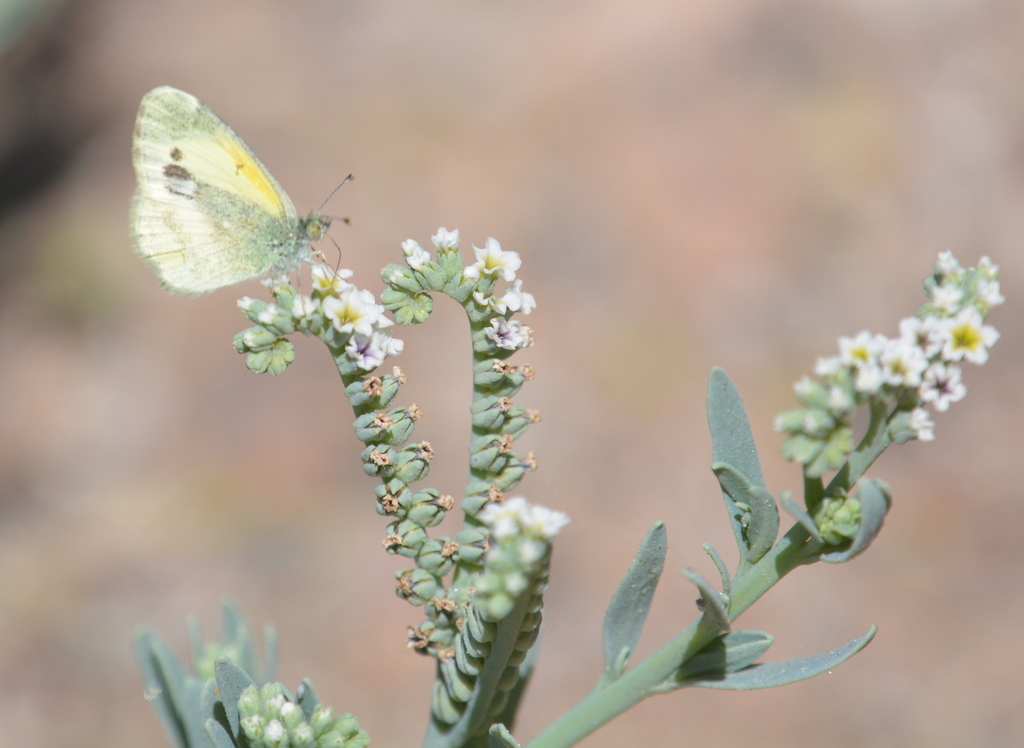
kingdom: Animalia
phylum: Arthropoda
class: Insecta
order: Lepidoptera
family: Pieridae
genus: Nathalis
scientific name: Nathalis iole
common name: Dainty sulphur
